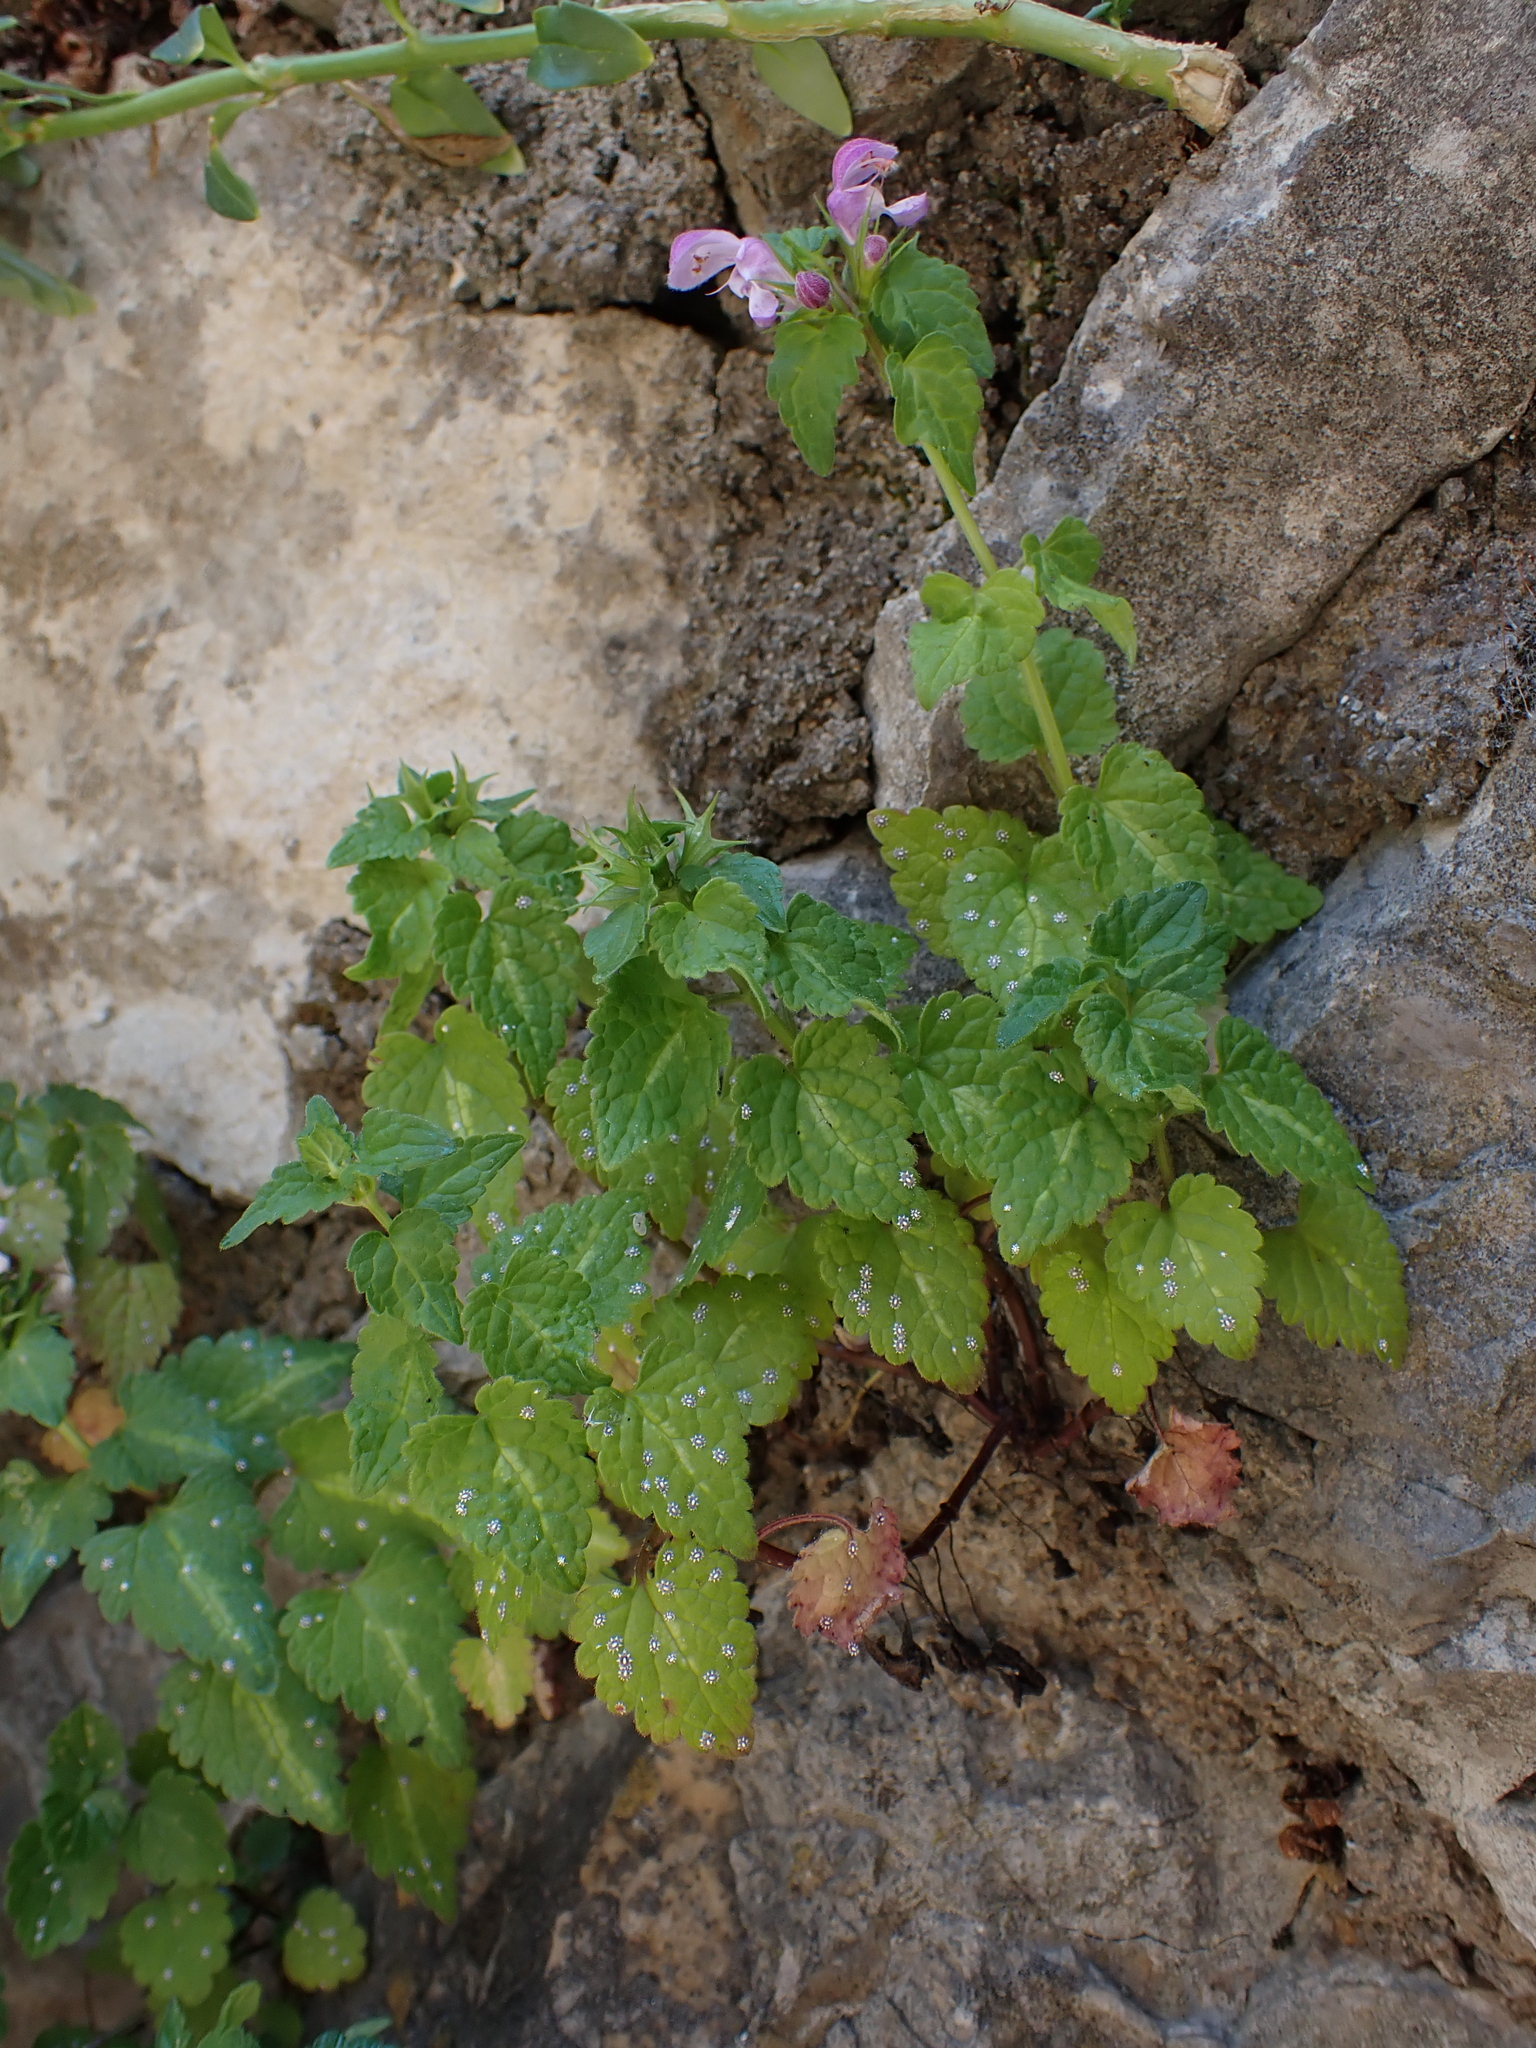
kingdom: Plantae
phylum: Tracheophyta
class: Magnoliopsida
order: Lamiales
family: Lamiaceae
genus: Lamium
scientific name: Lamium maculatum
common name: Spotted dead-nettle
